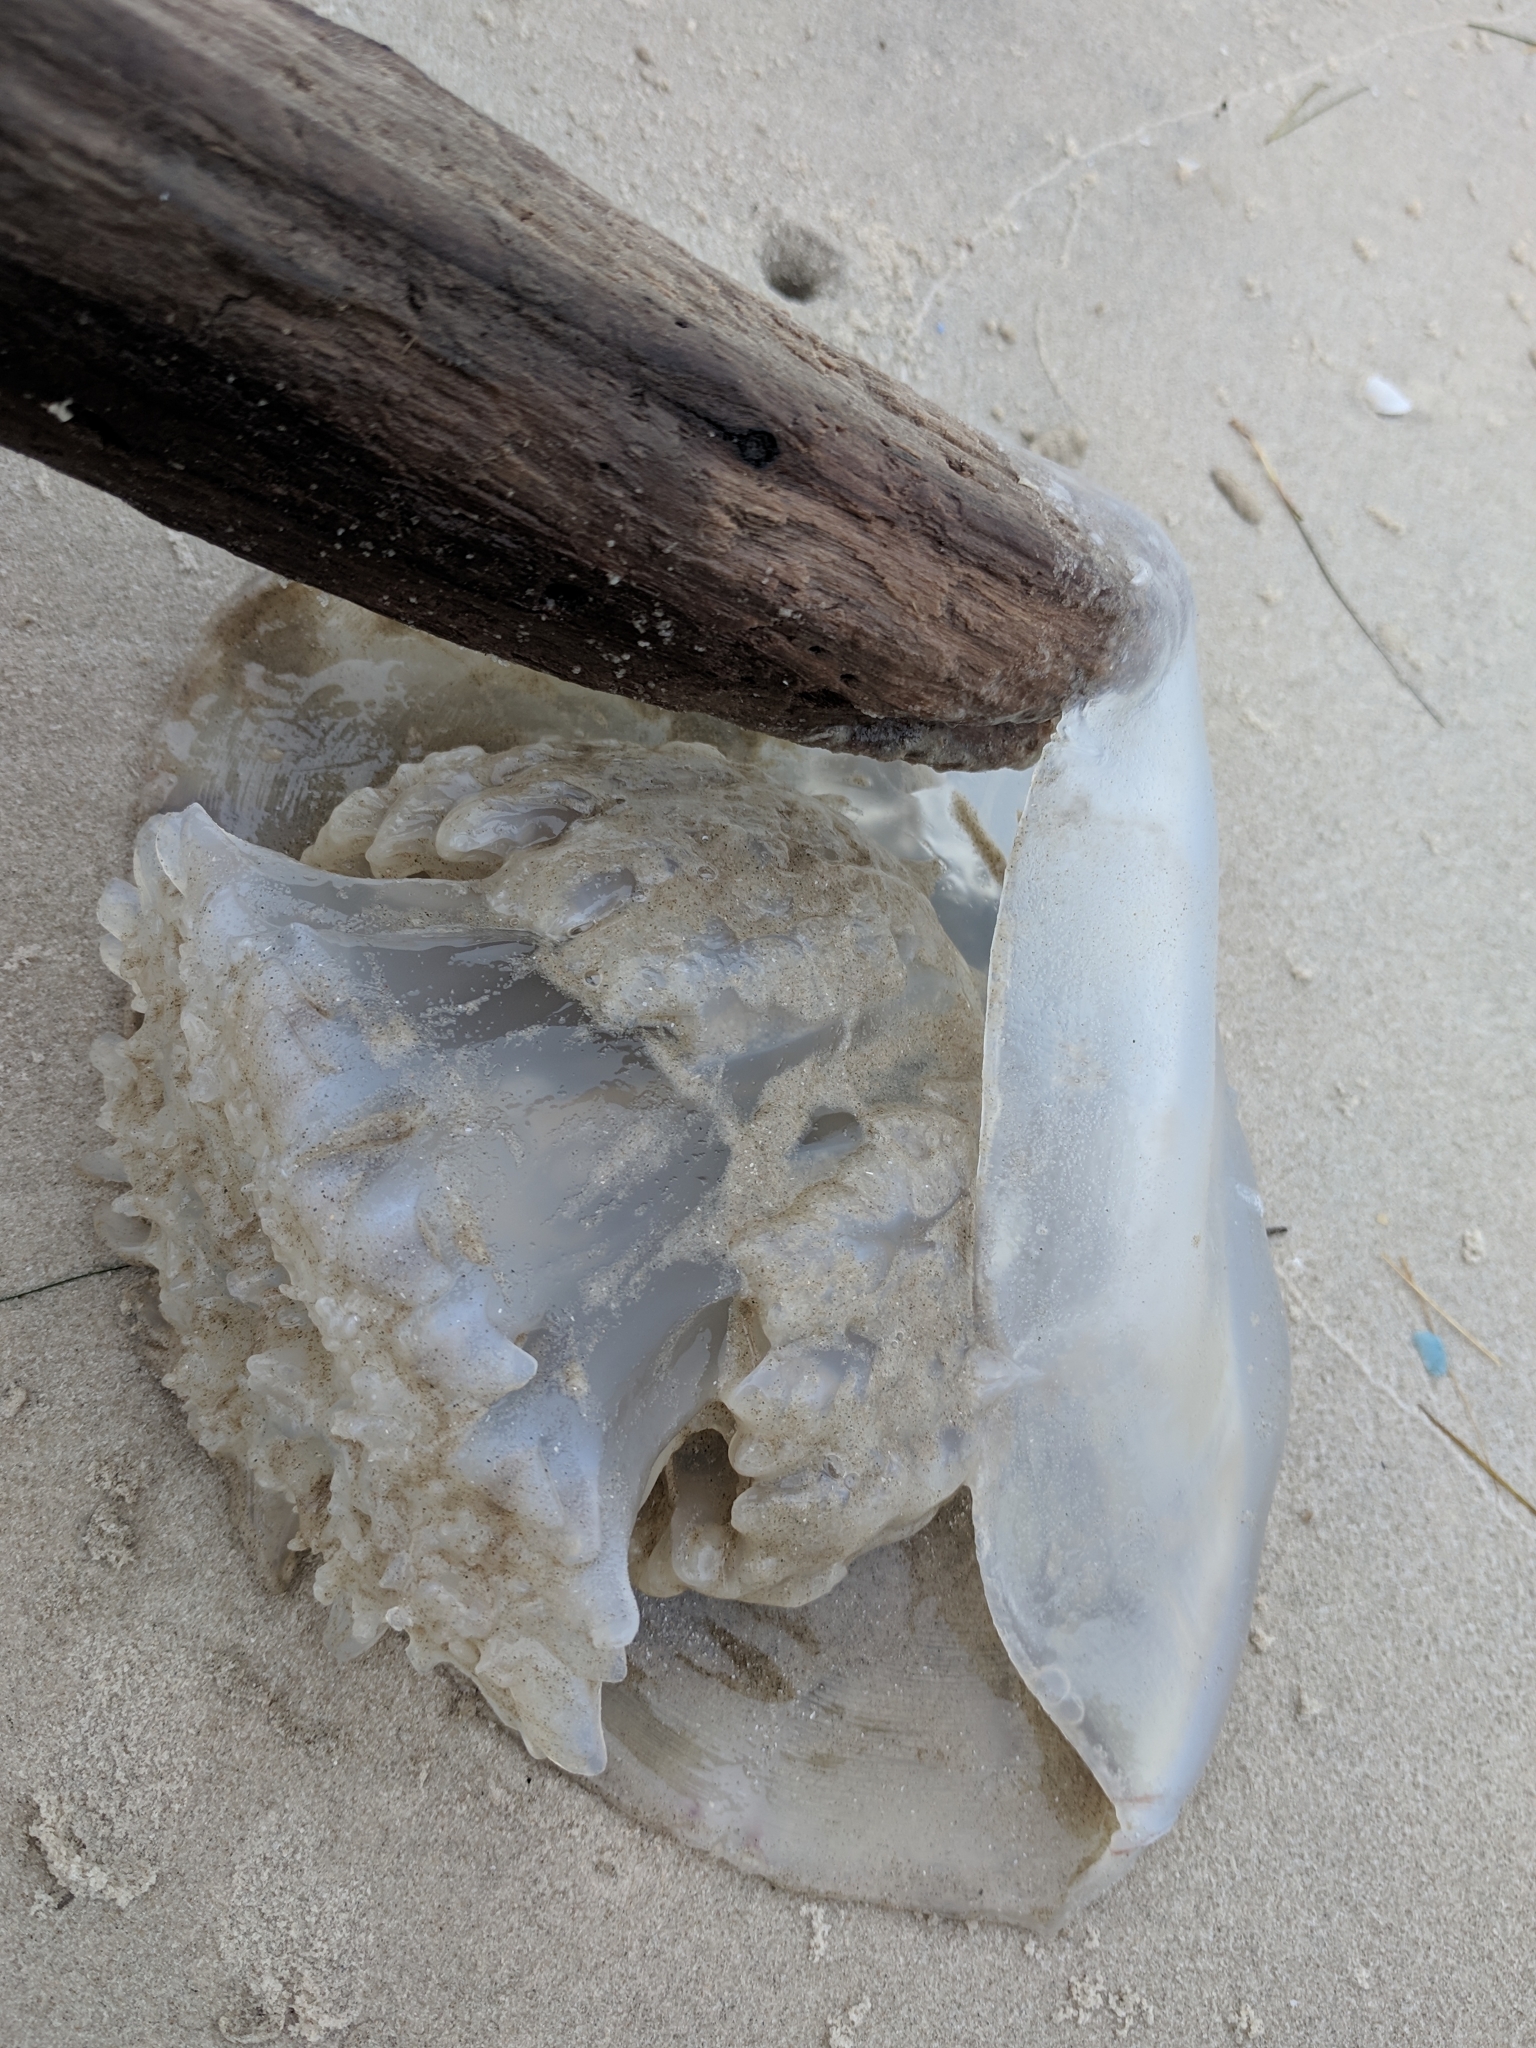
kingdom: Animalia
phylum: Cnidaria
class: Scyphozoa
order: Rhizostomeae
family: Stomolophidae
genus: Stomolophus
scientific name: Stomolophus meleagris
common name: Cabbagehead
